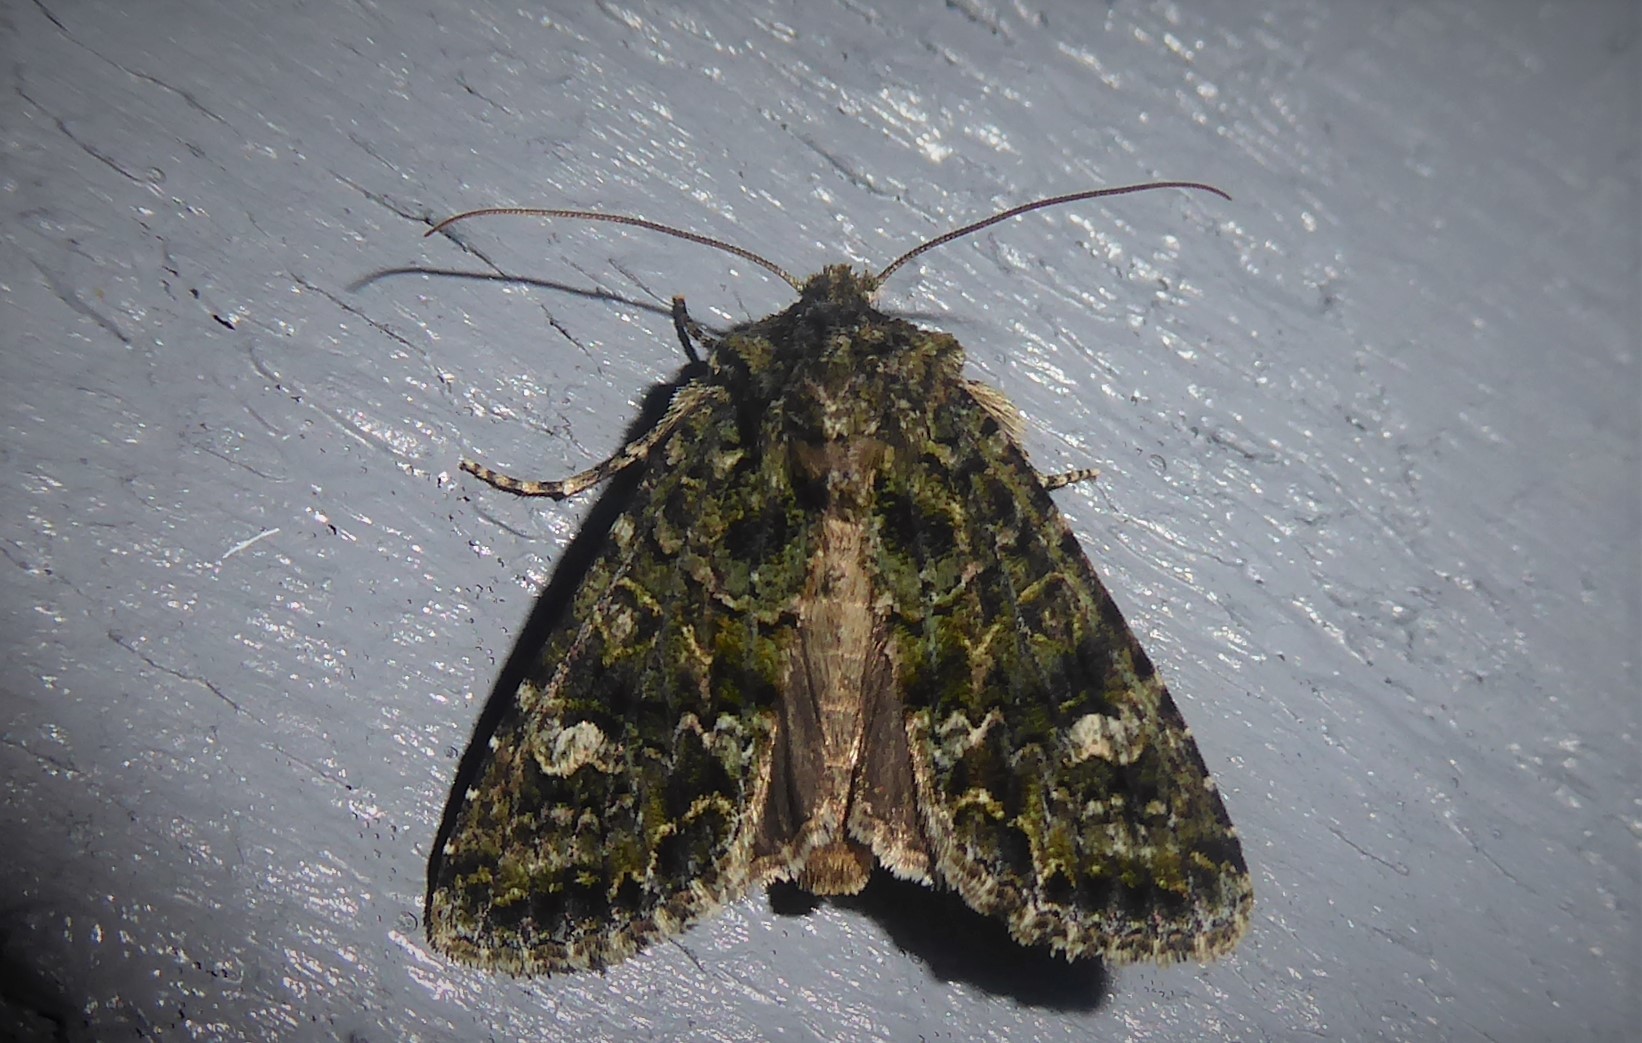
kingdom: Animalia
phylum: Arthropoda
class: Insecta
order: Lepidoptera
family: Noctuidae
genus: Ichneutica
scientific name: Ichneutica
